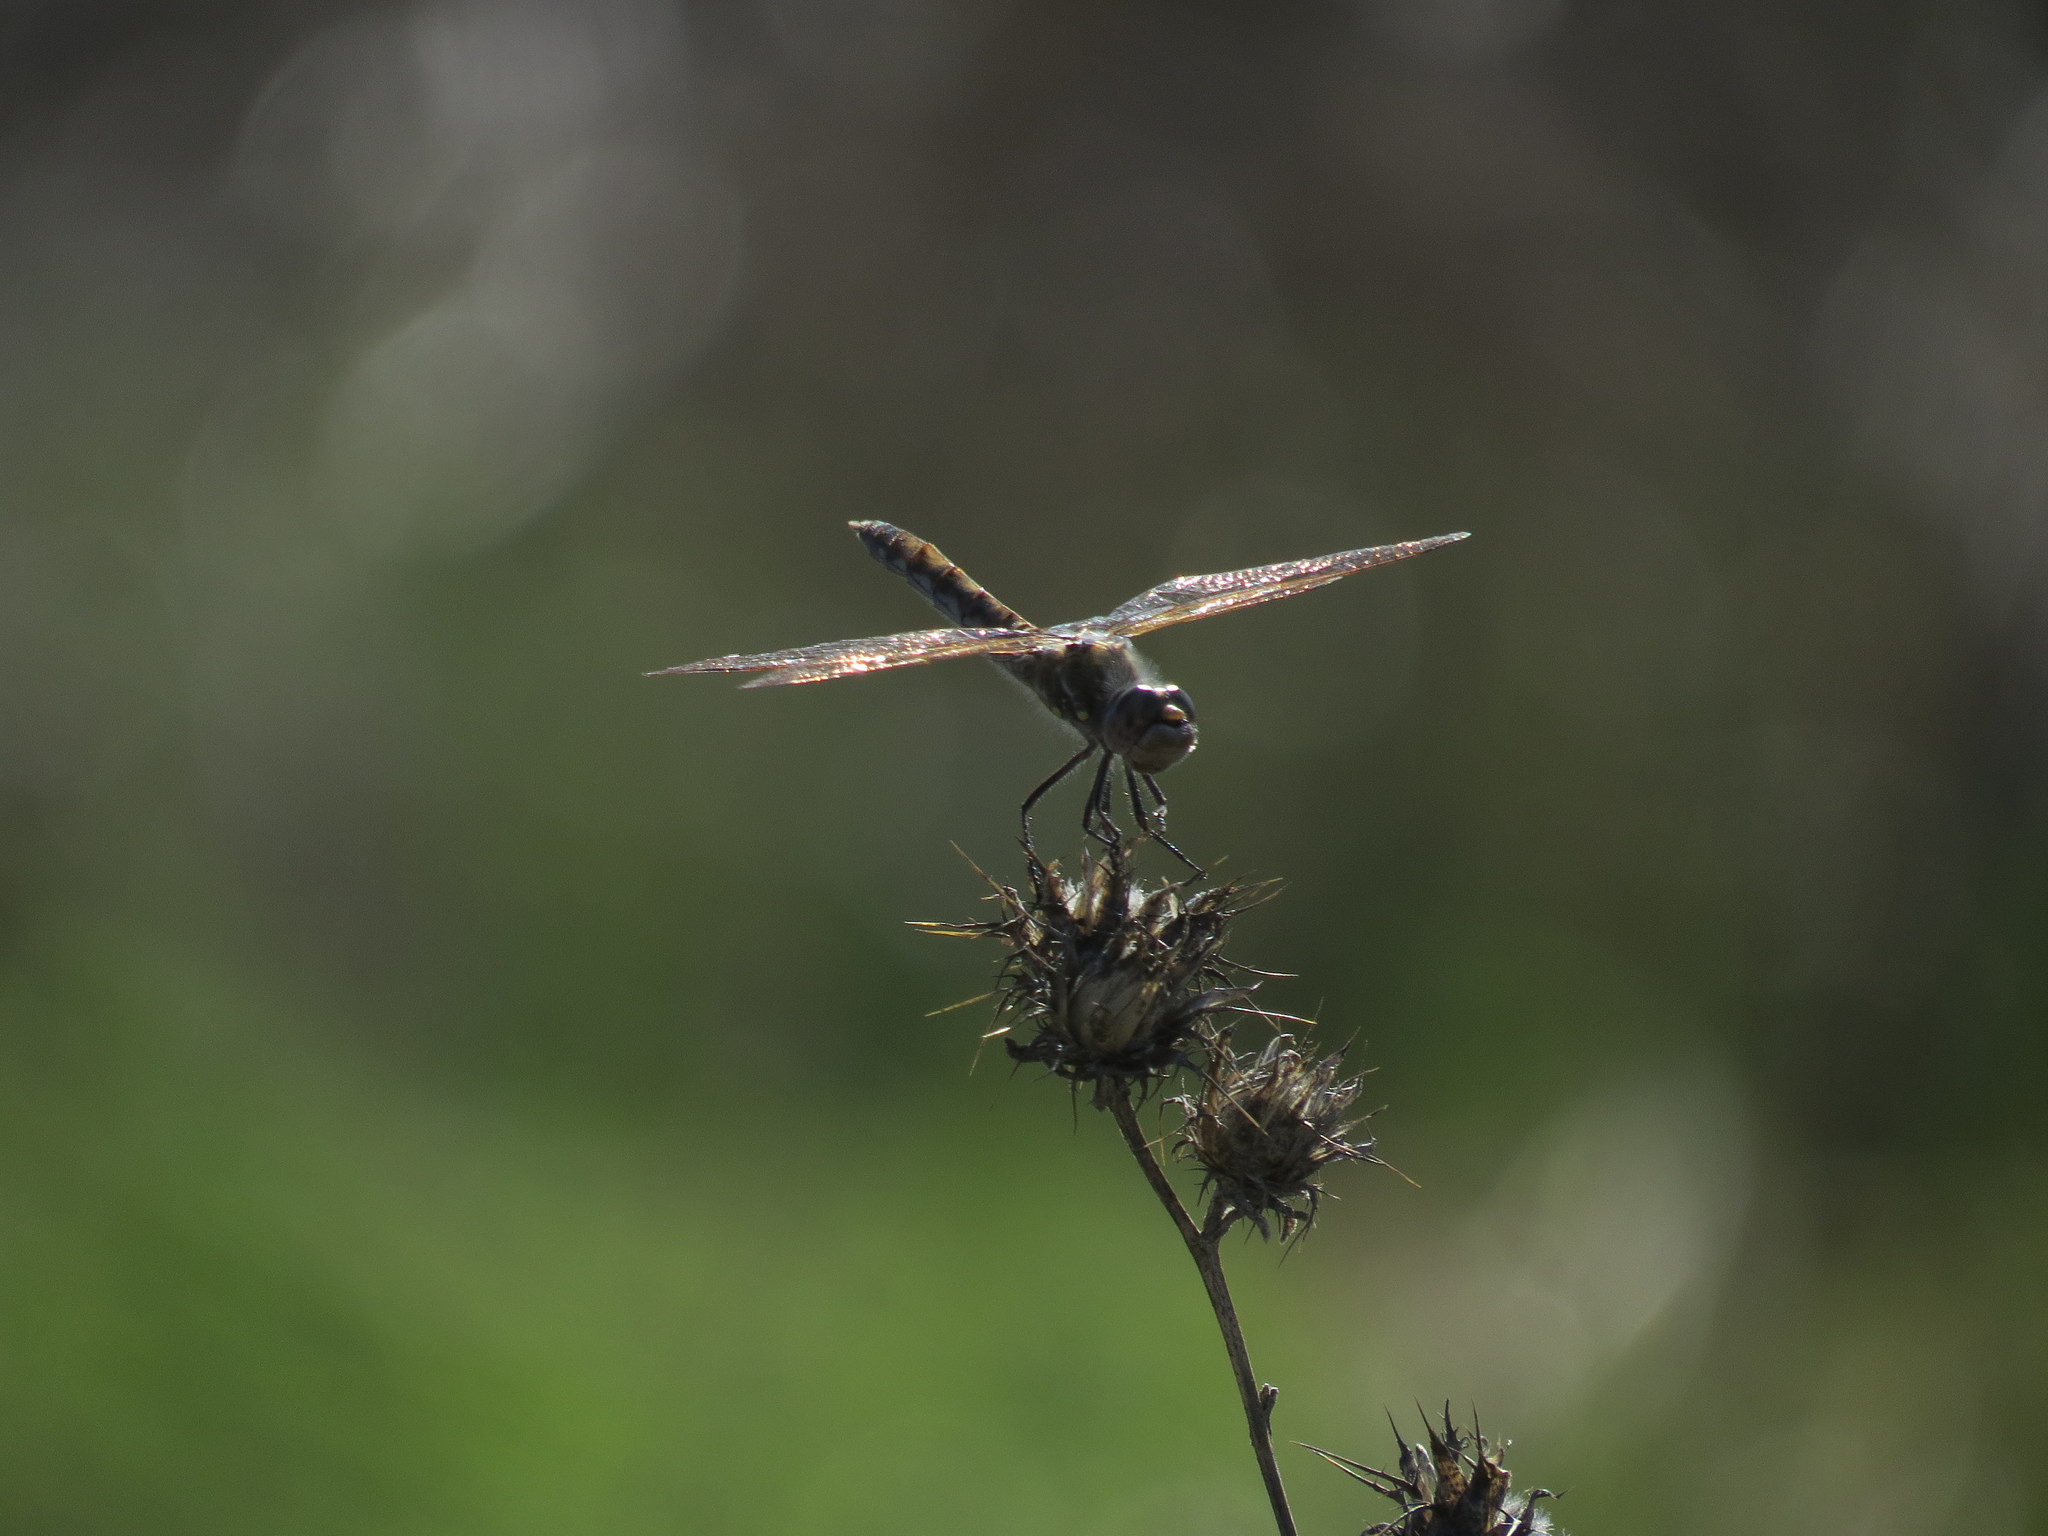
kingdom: Animalia
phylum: Arthropoda
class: Insecta
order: Odonata
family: Libellulidae
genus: Sympetrum
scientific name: Sympetrum corruptum
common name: Variegated meadowhawk
